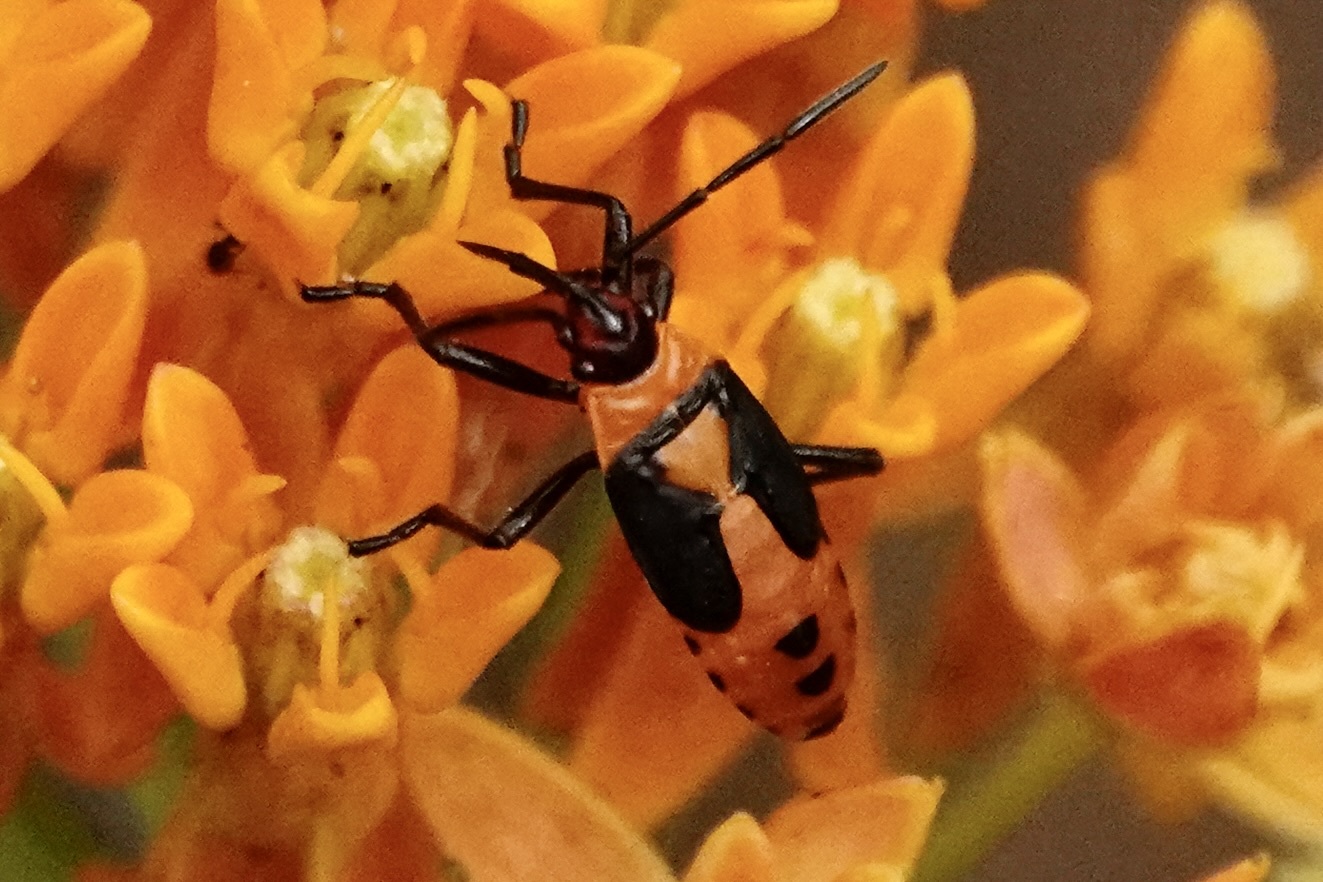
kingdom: Animalia
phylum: Arthropoda
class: Insecta
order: Hemiptera
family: Lygaeidae
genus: Oncopeltus
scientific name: Oncopeltus fasciatus
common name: Large milkweed bug
